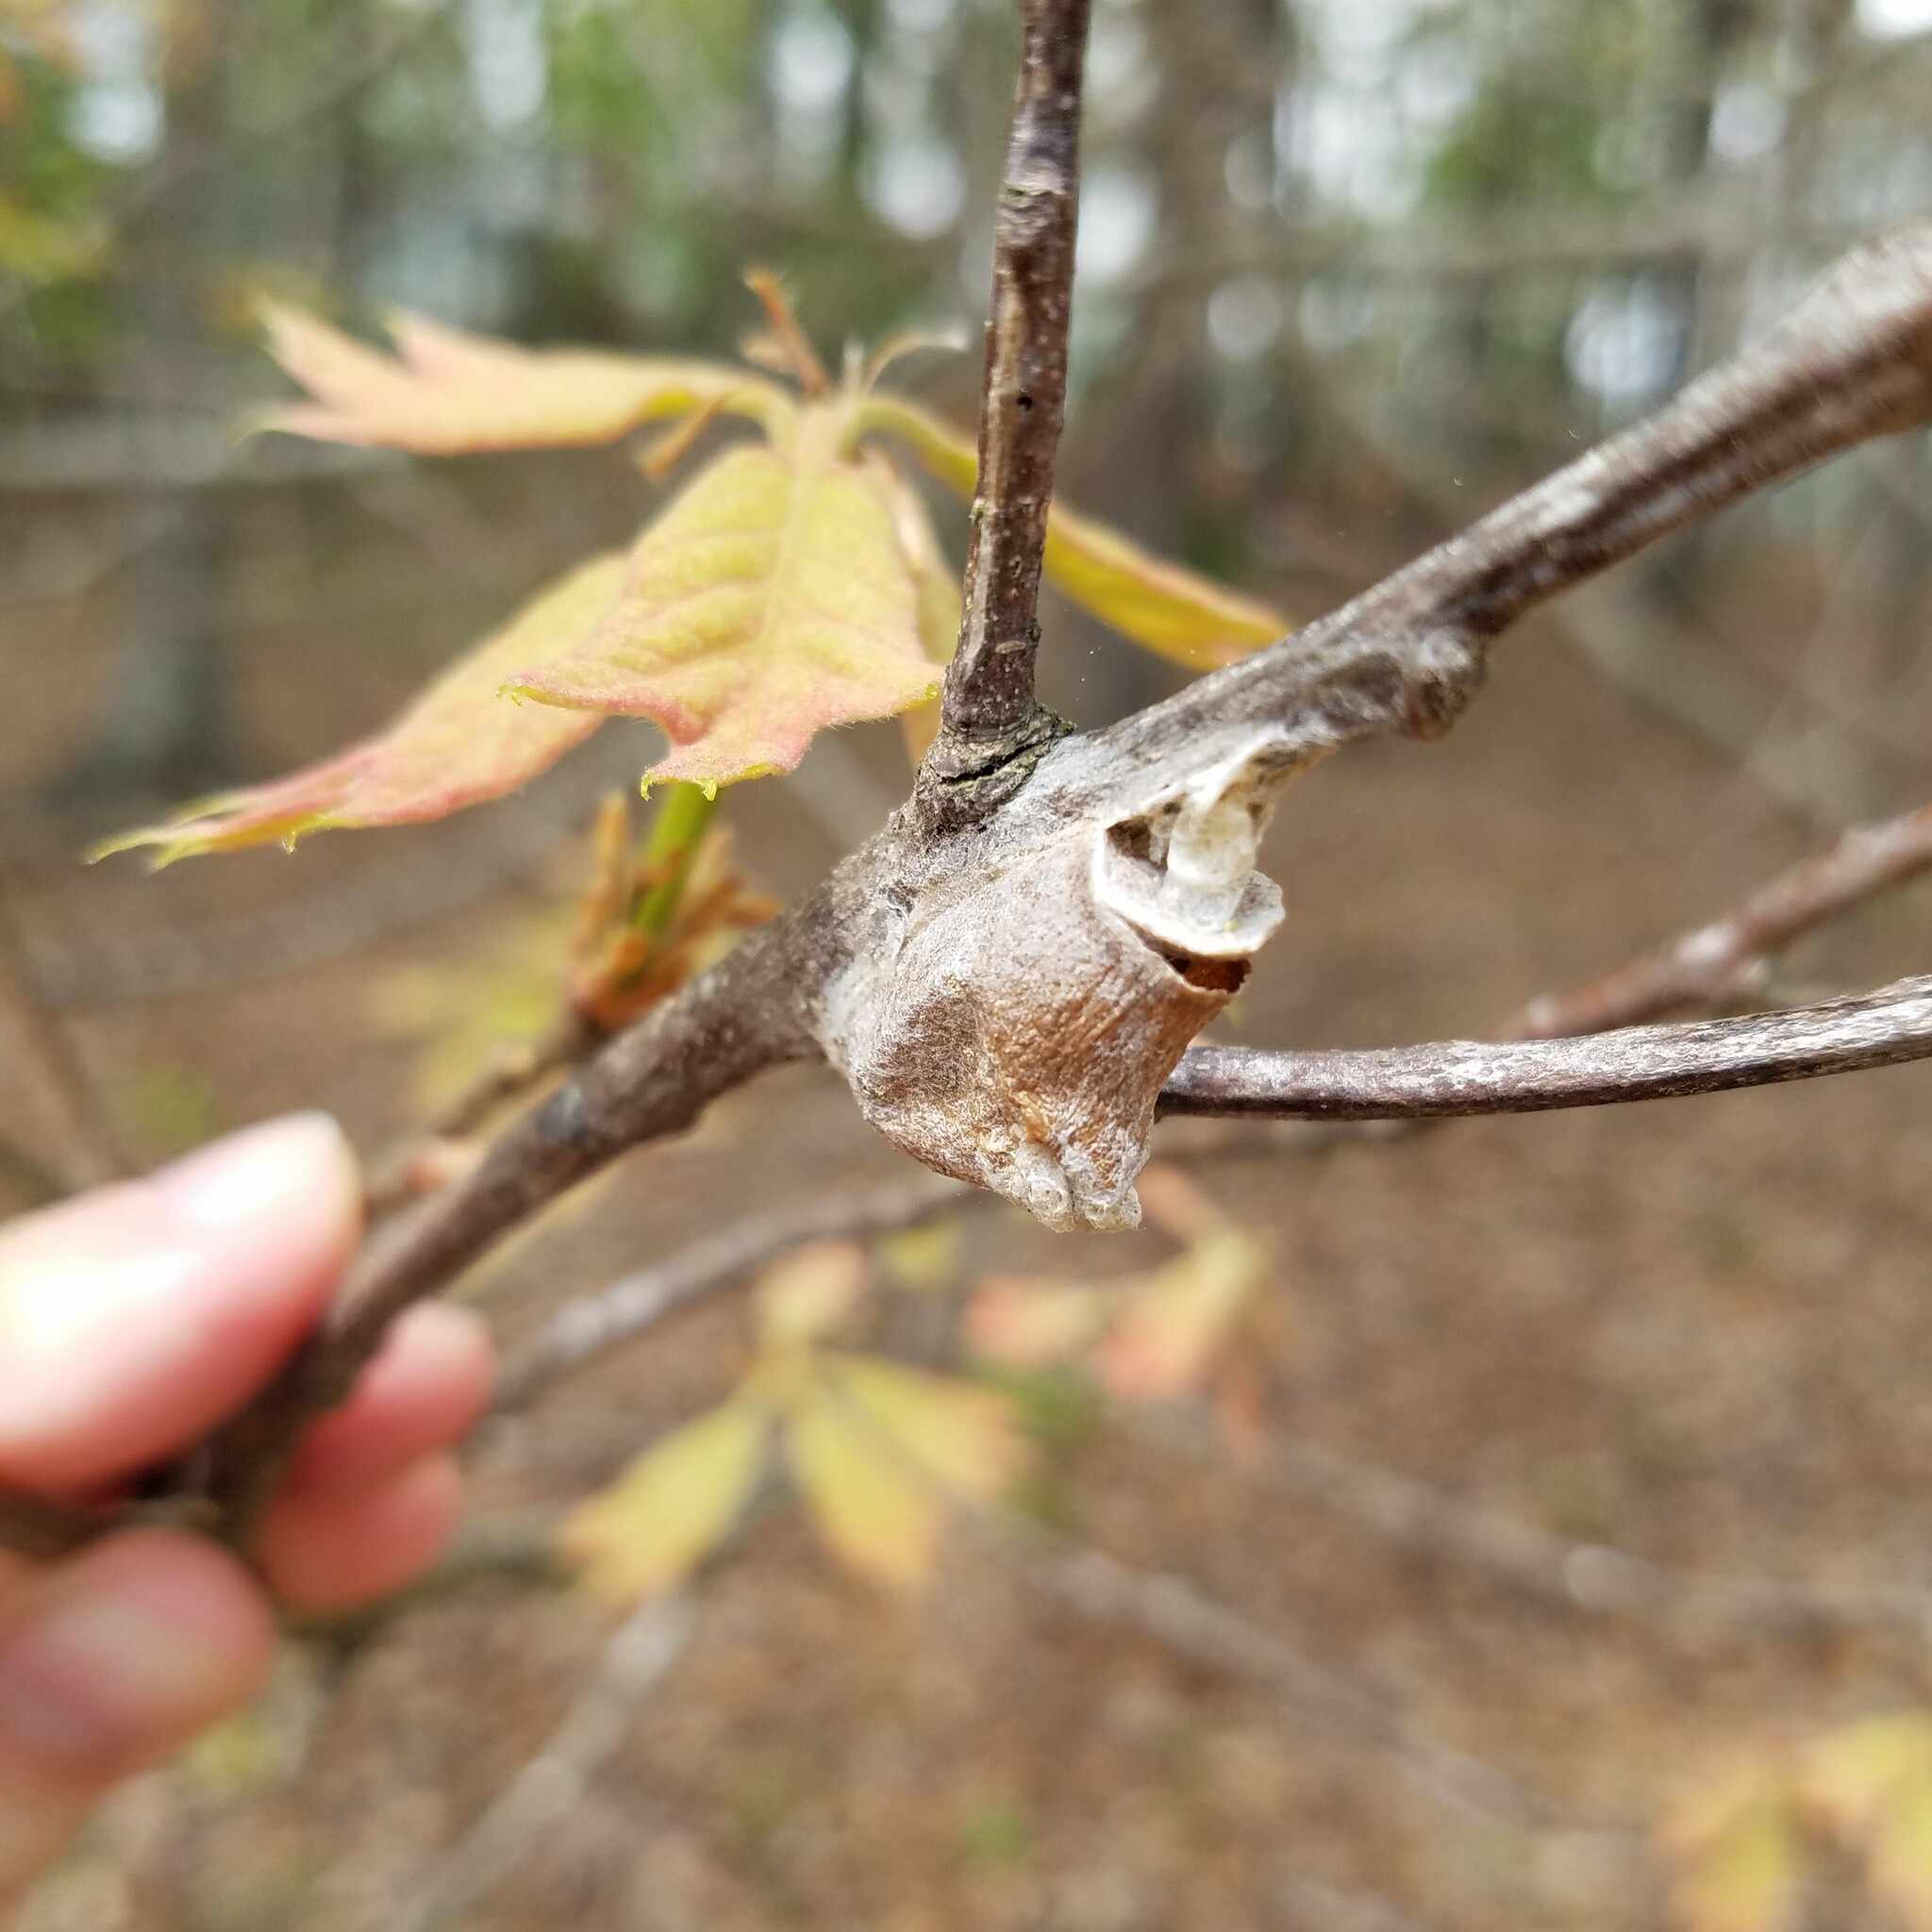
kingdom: Animalia
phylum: Arthropoda
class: Insecta
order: Lepidoptera
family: Megalopygidae
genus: Megalopyge
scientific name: Megalopyge
